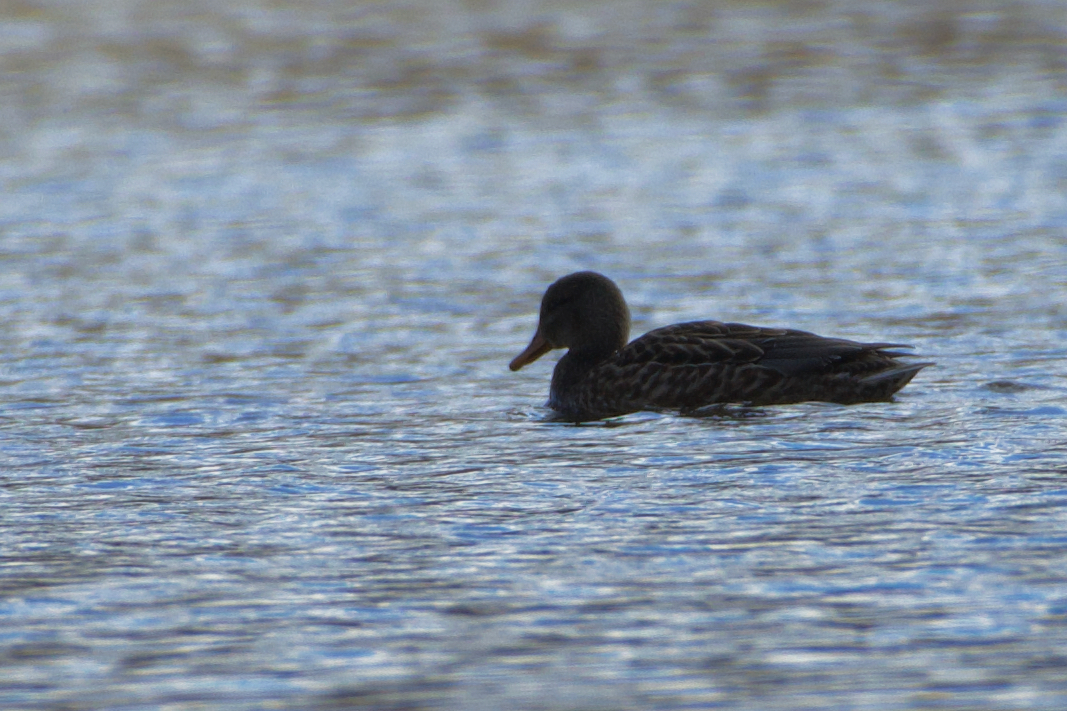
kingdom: Animalia
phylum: Chordata
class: Aves
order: Anseriformes
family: Anatidae
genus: Mareca
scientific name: Mareca strepera
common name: Gadwall
